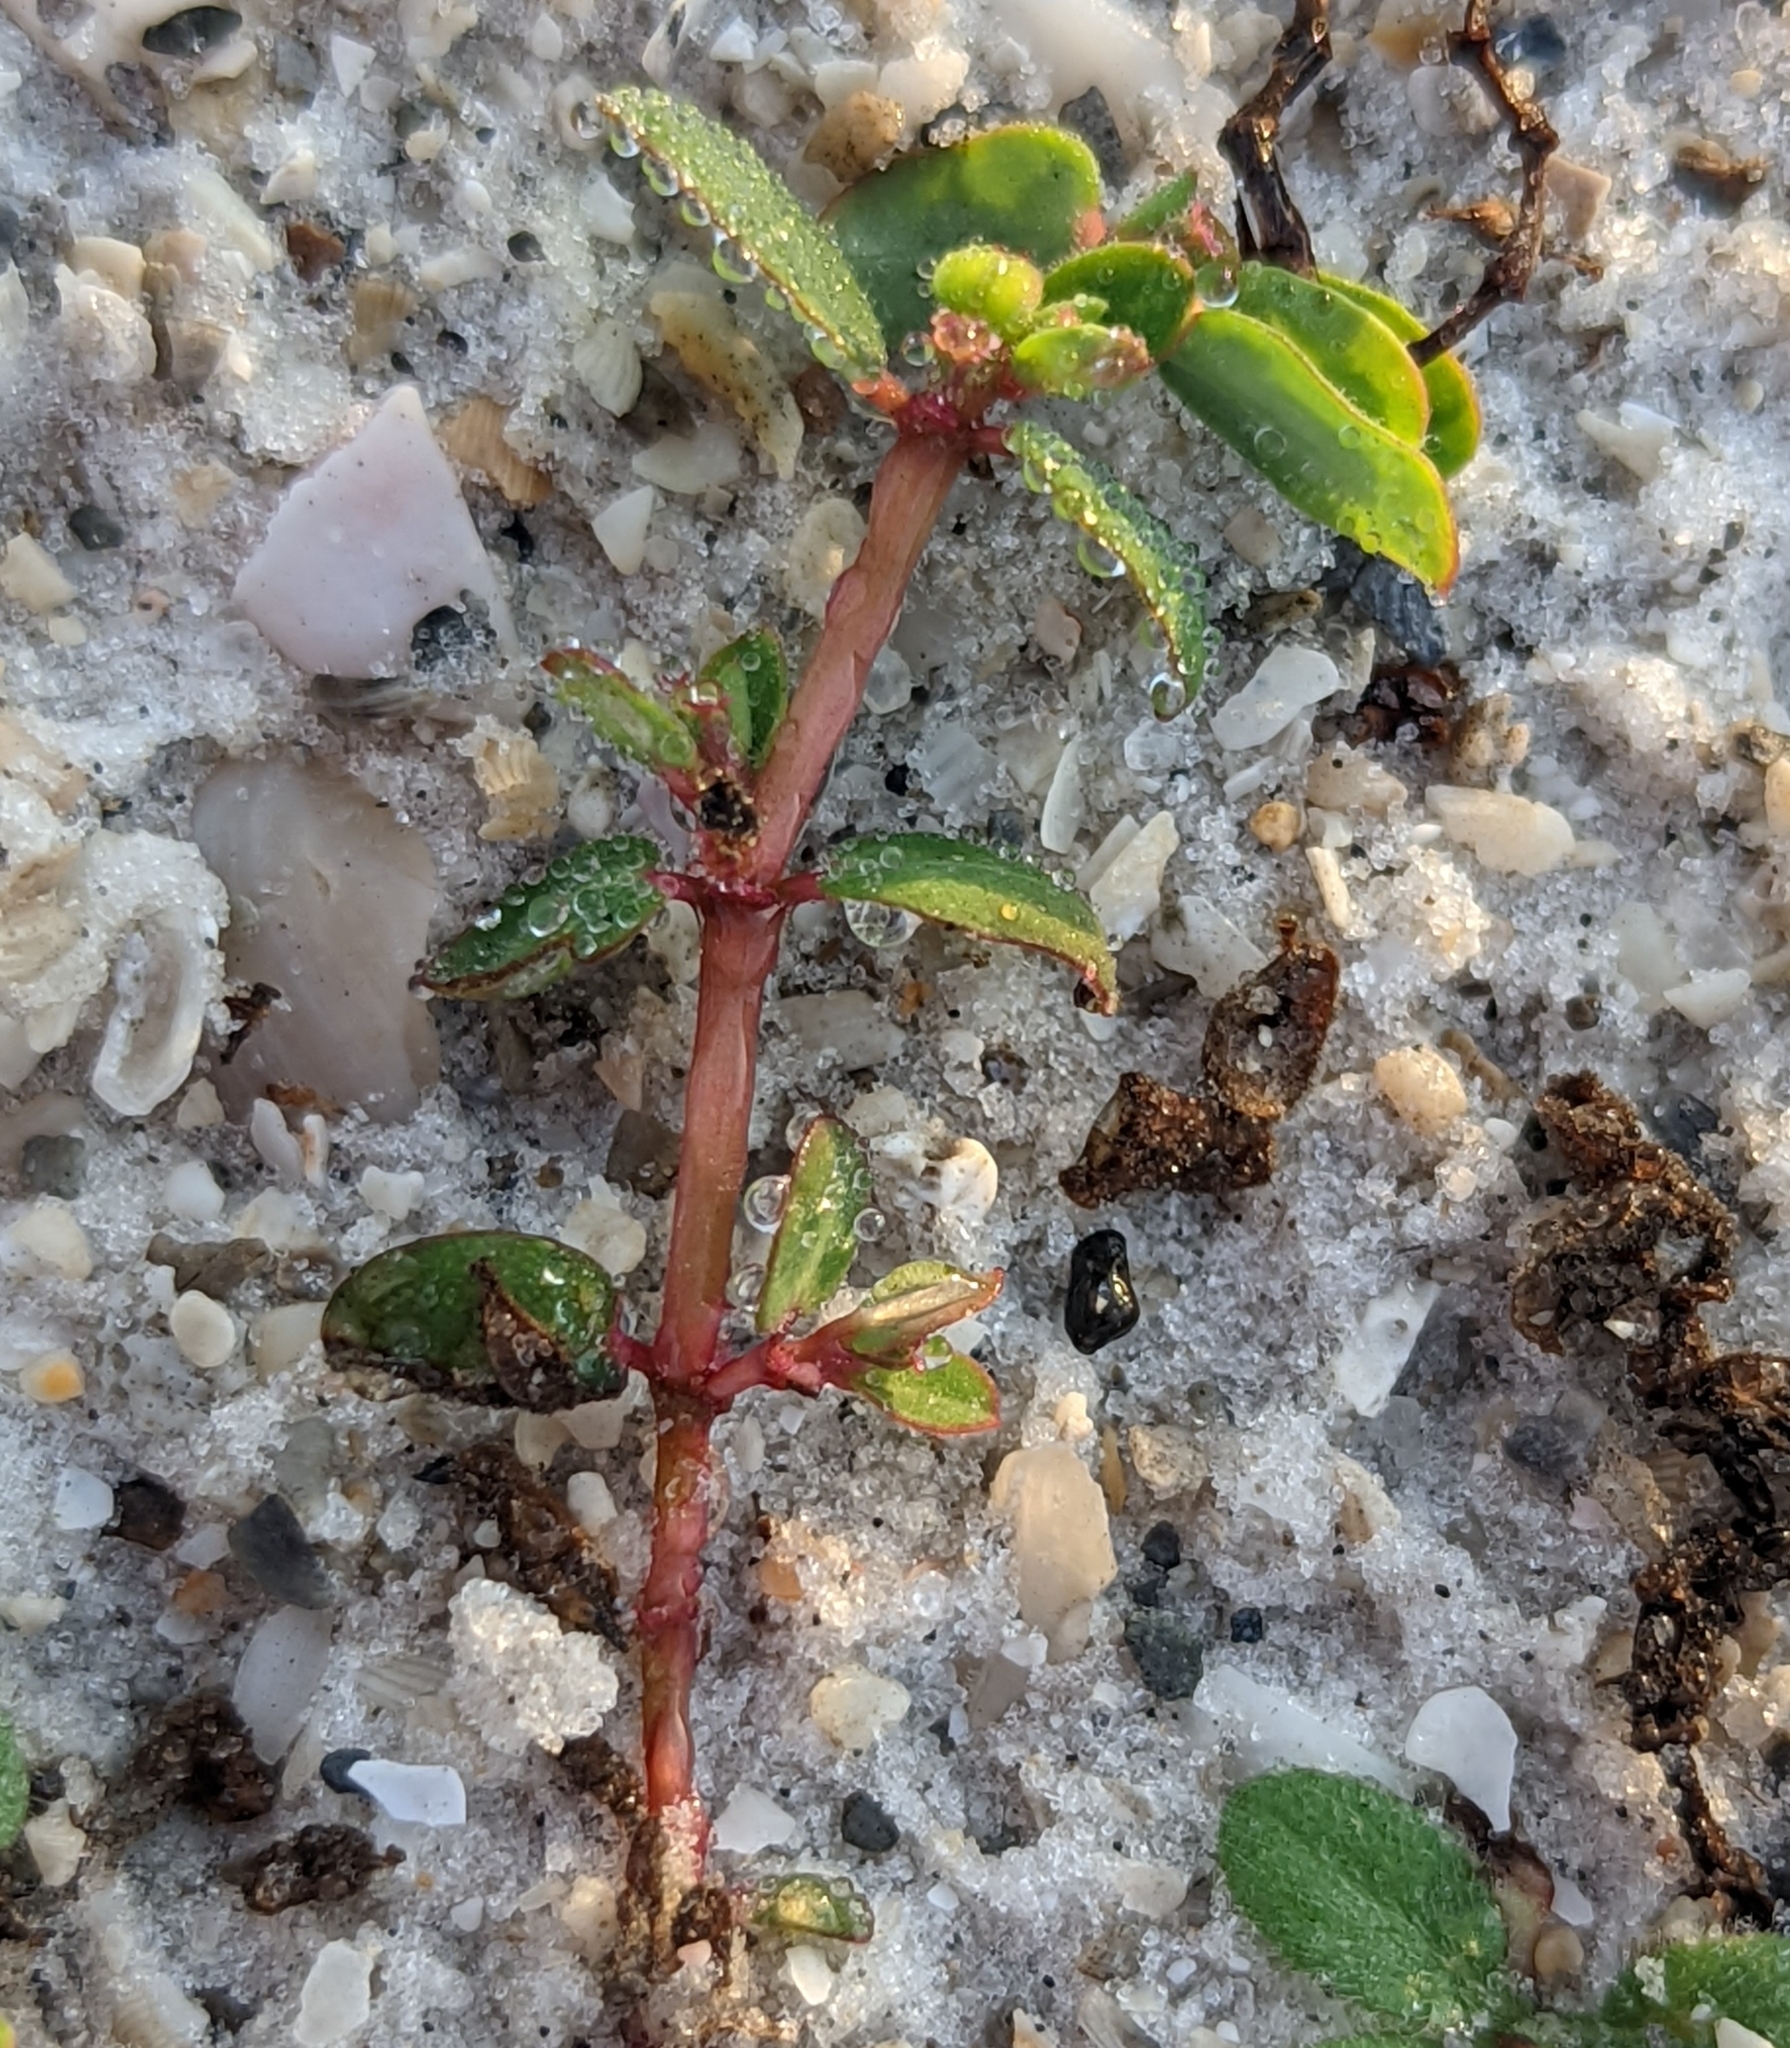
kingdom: Plantae
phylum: Tracheophyta
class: Magnoliopsida
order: Malpighiales
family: Euphorbiaceae
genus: Euphorbia
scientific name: Euphorbia blodgettii
